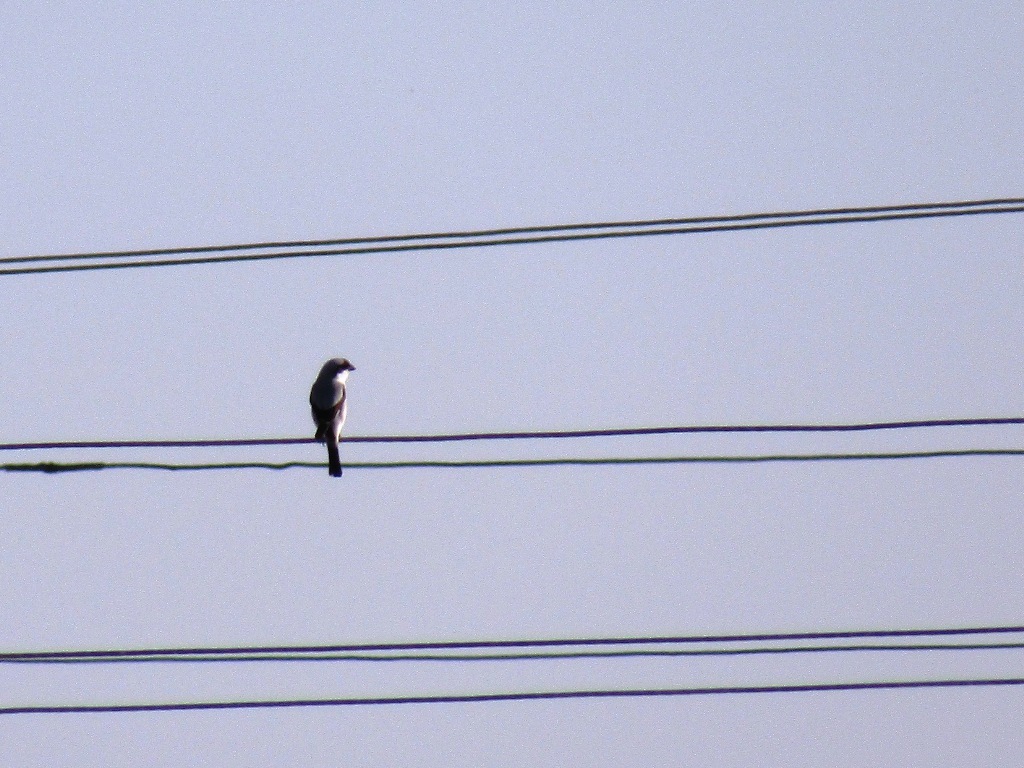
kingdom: Animalia
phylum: Chordata
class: Aves
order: Passeriformes
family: Laniidae
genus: Lanius
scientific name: Lanius minor
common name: Lesser grey shrike
